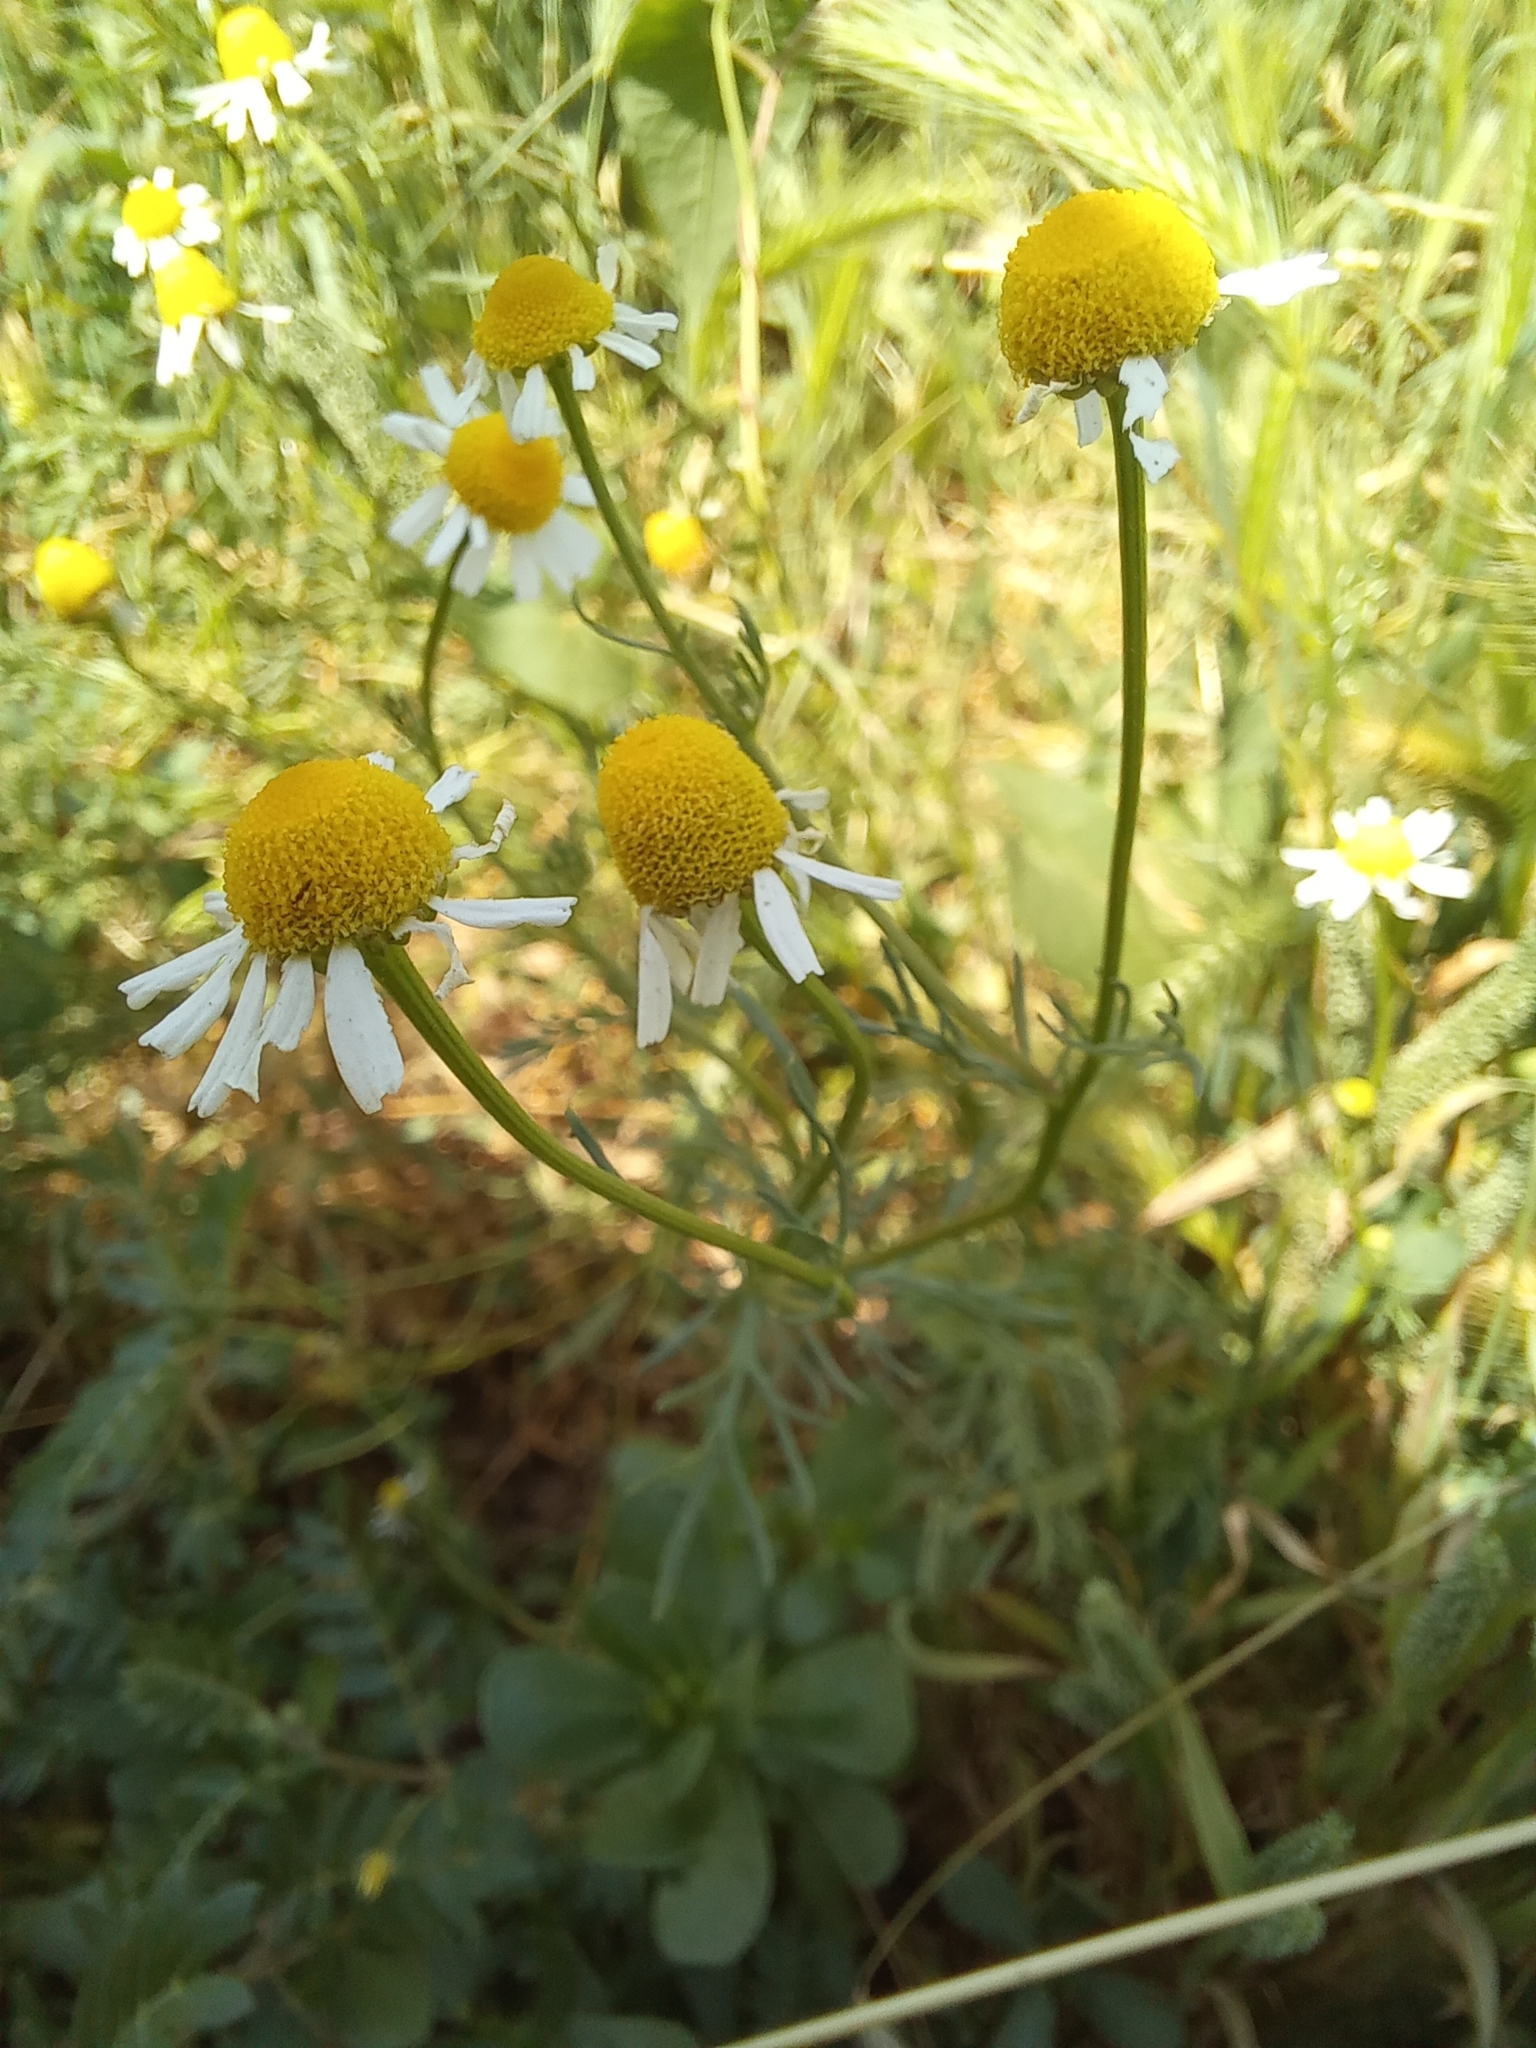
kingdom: Plantae
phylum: Tracheophyta
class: Magnoliopsida
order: Asterales
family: Asteraceae
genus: Matricaria
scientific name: Matricaria chamomilla
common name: Scented mayweed
